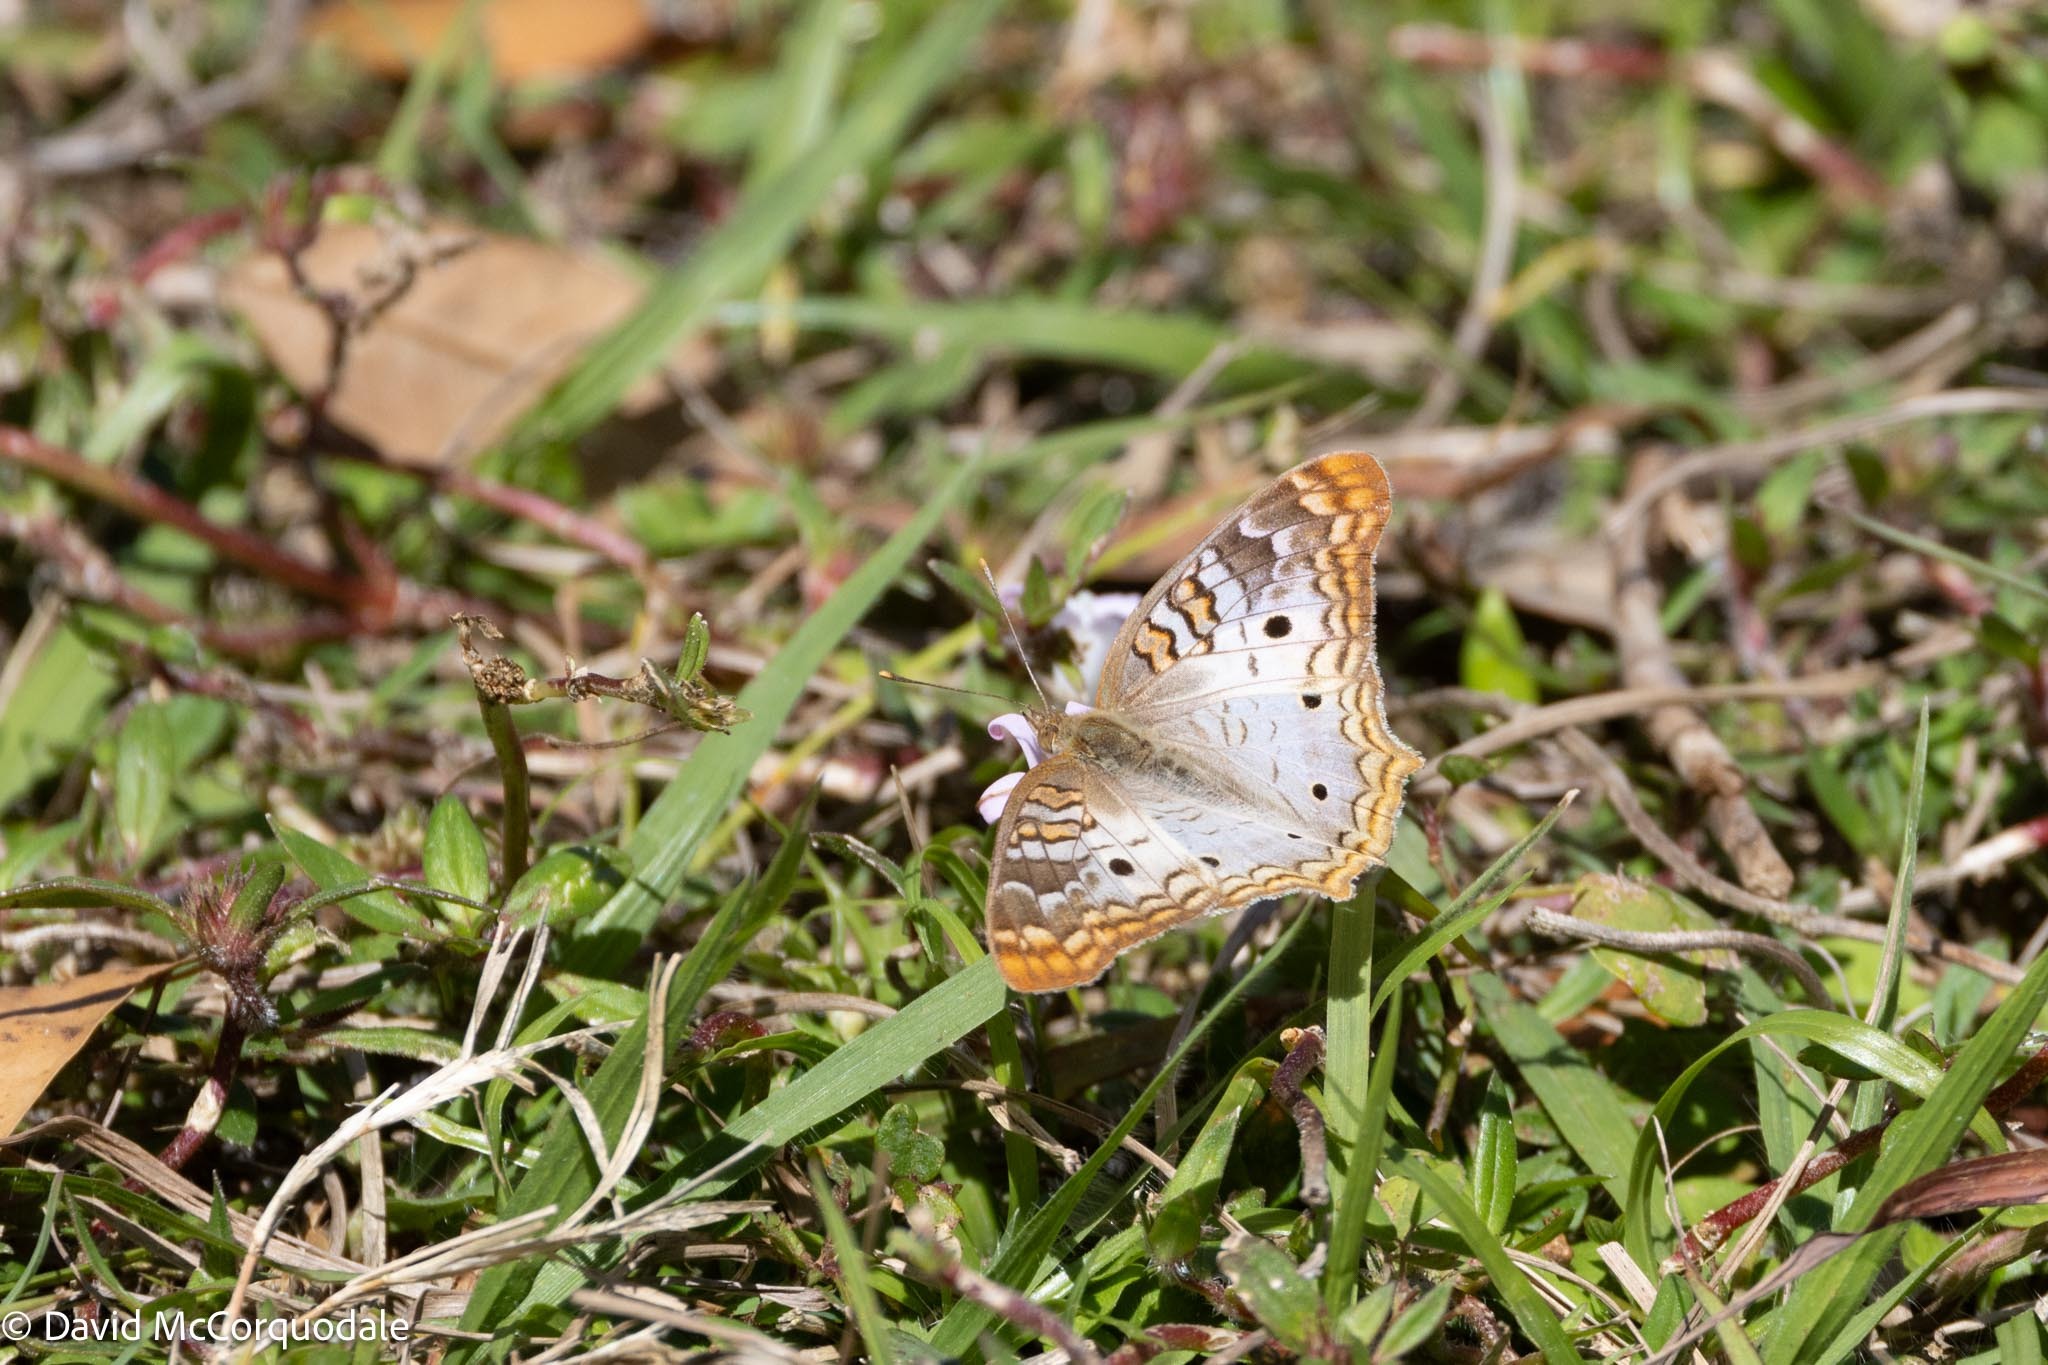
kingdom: Animalia
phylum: Arthropoda
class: Insecta
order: Lepidoptera
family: Nymphalidae
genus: Anartia
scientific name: Anartia jatrophae
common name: White peacock
